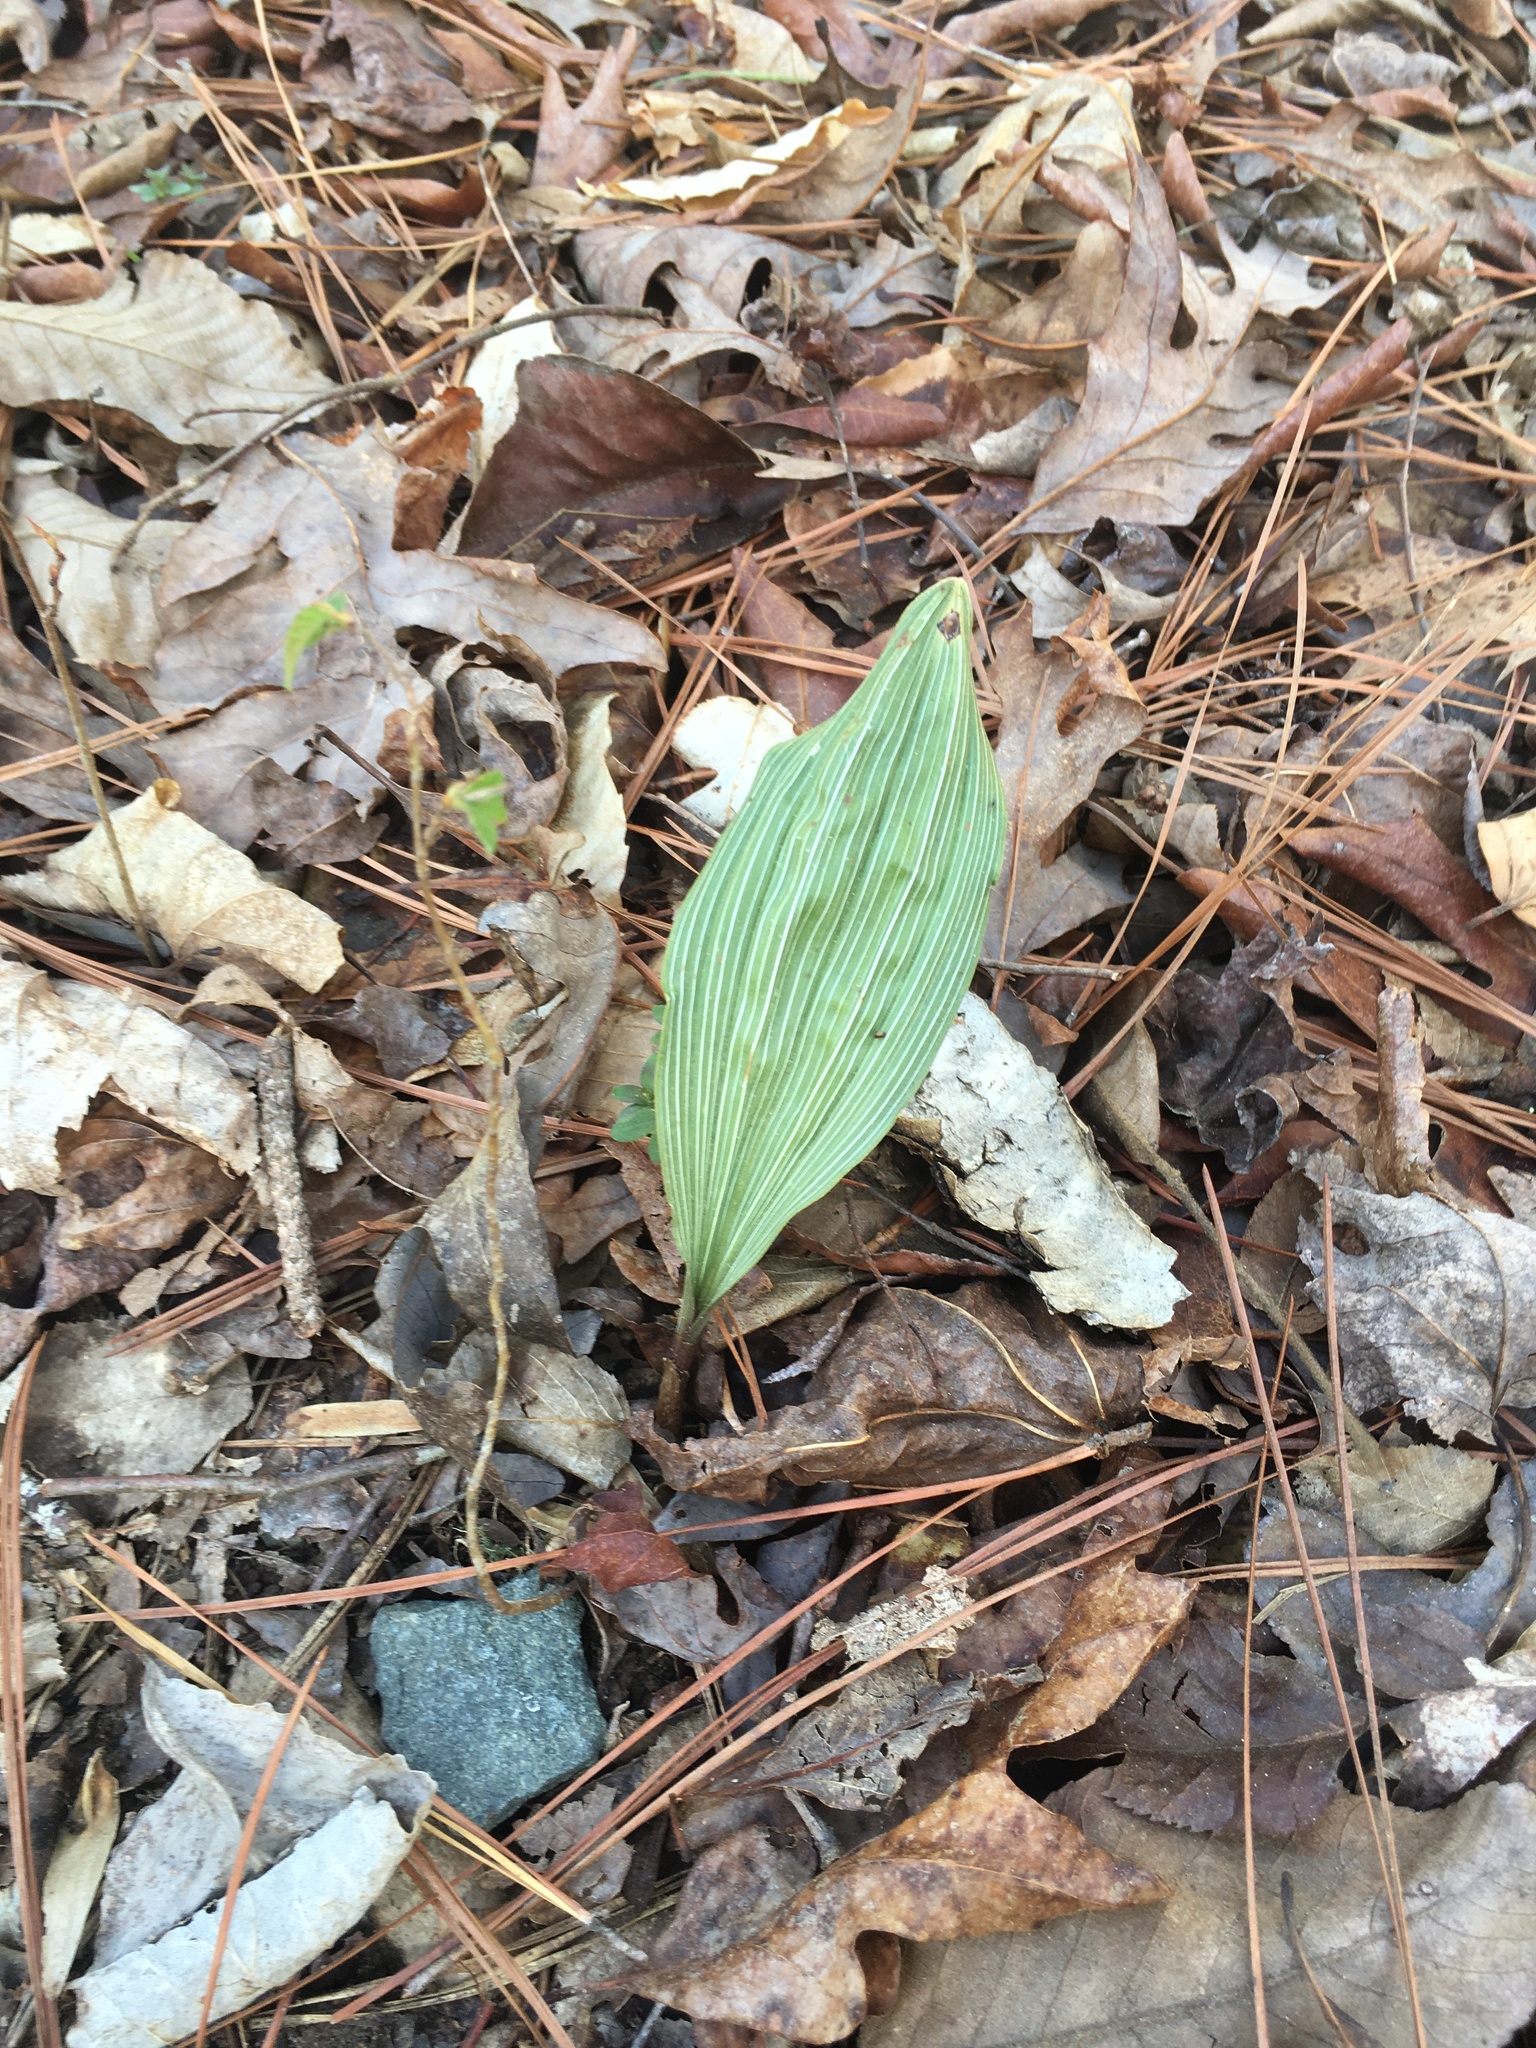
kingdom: Plantae
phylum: Tracheophyta
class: Liliopsida
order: Asparagales
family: Orchidaceae
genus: Aplectrum
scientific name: Aplectrum hyemale
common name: Adam-and-eve
